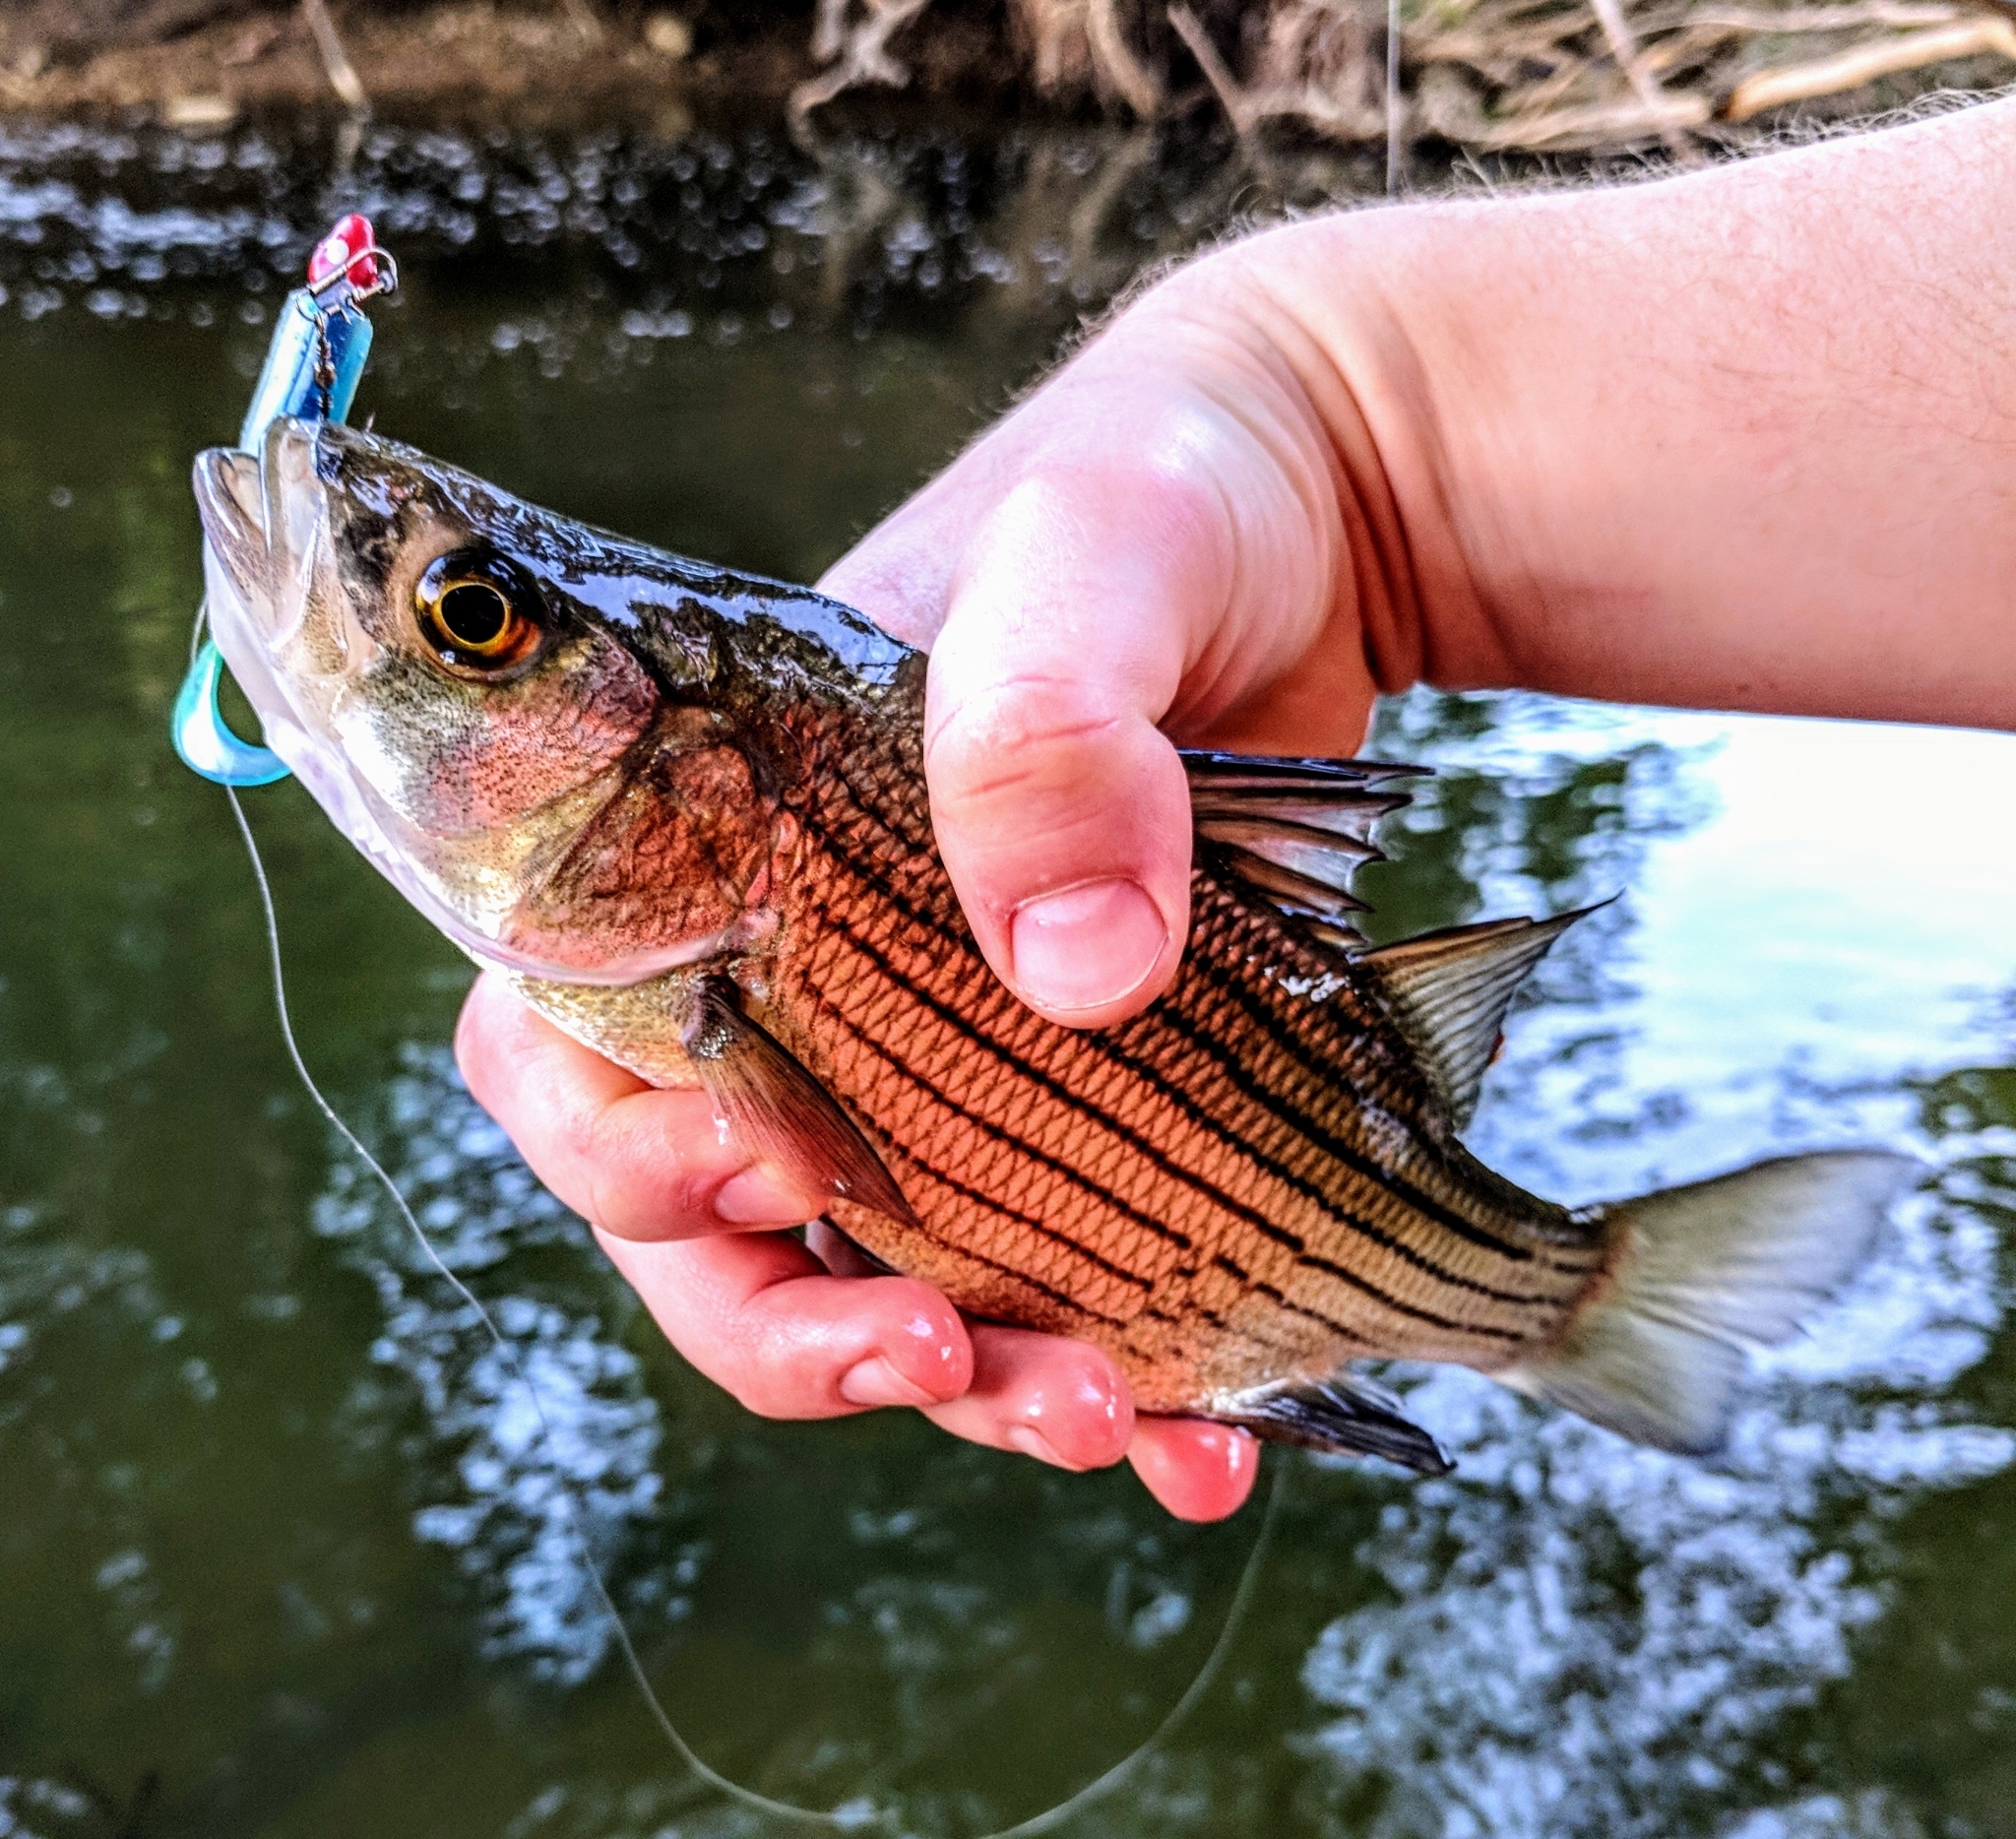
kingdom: Animalia
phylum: Chordata
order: Perciformes
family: Moronidae
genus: Morone
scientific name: Morone mississippiensis
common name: Yellow bass
